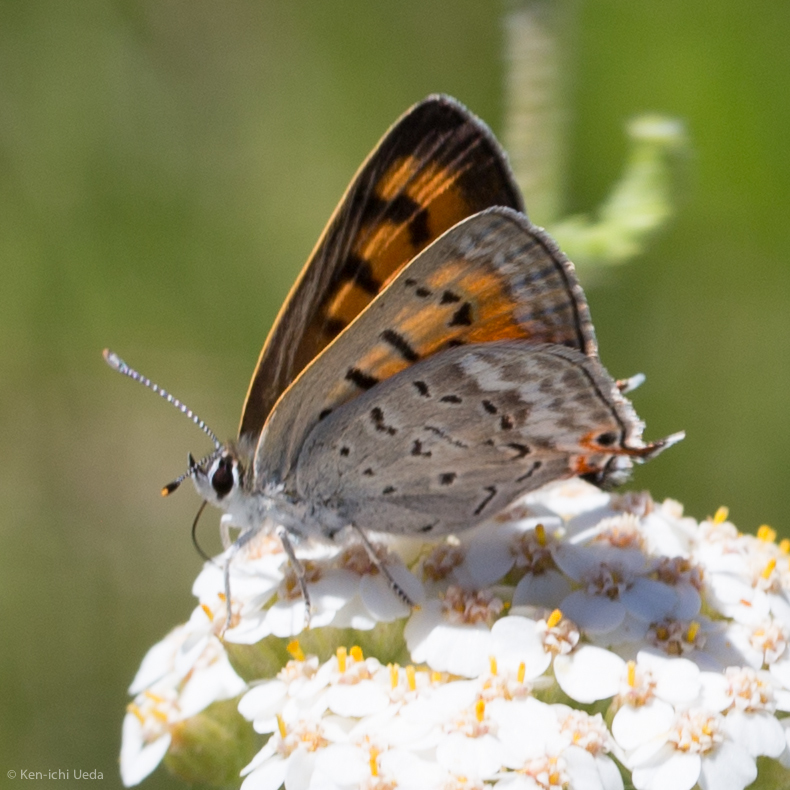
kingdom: Animalia
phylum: Arthropoda
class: Insecta
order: Lepidoptera
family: Lycaenidae
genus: Tharsalea
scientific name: Tharsalea arota
